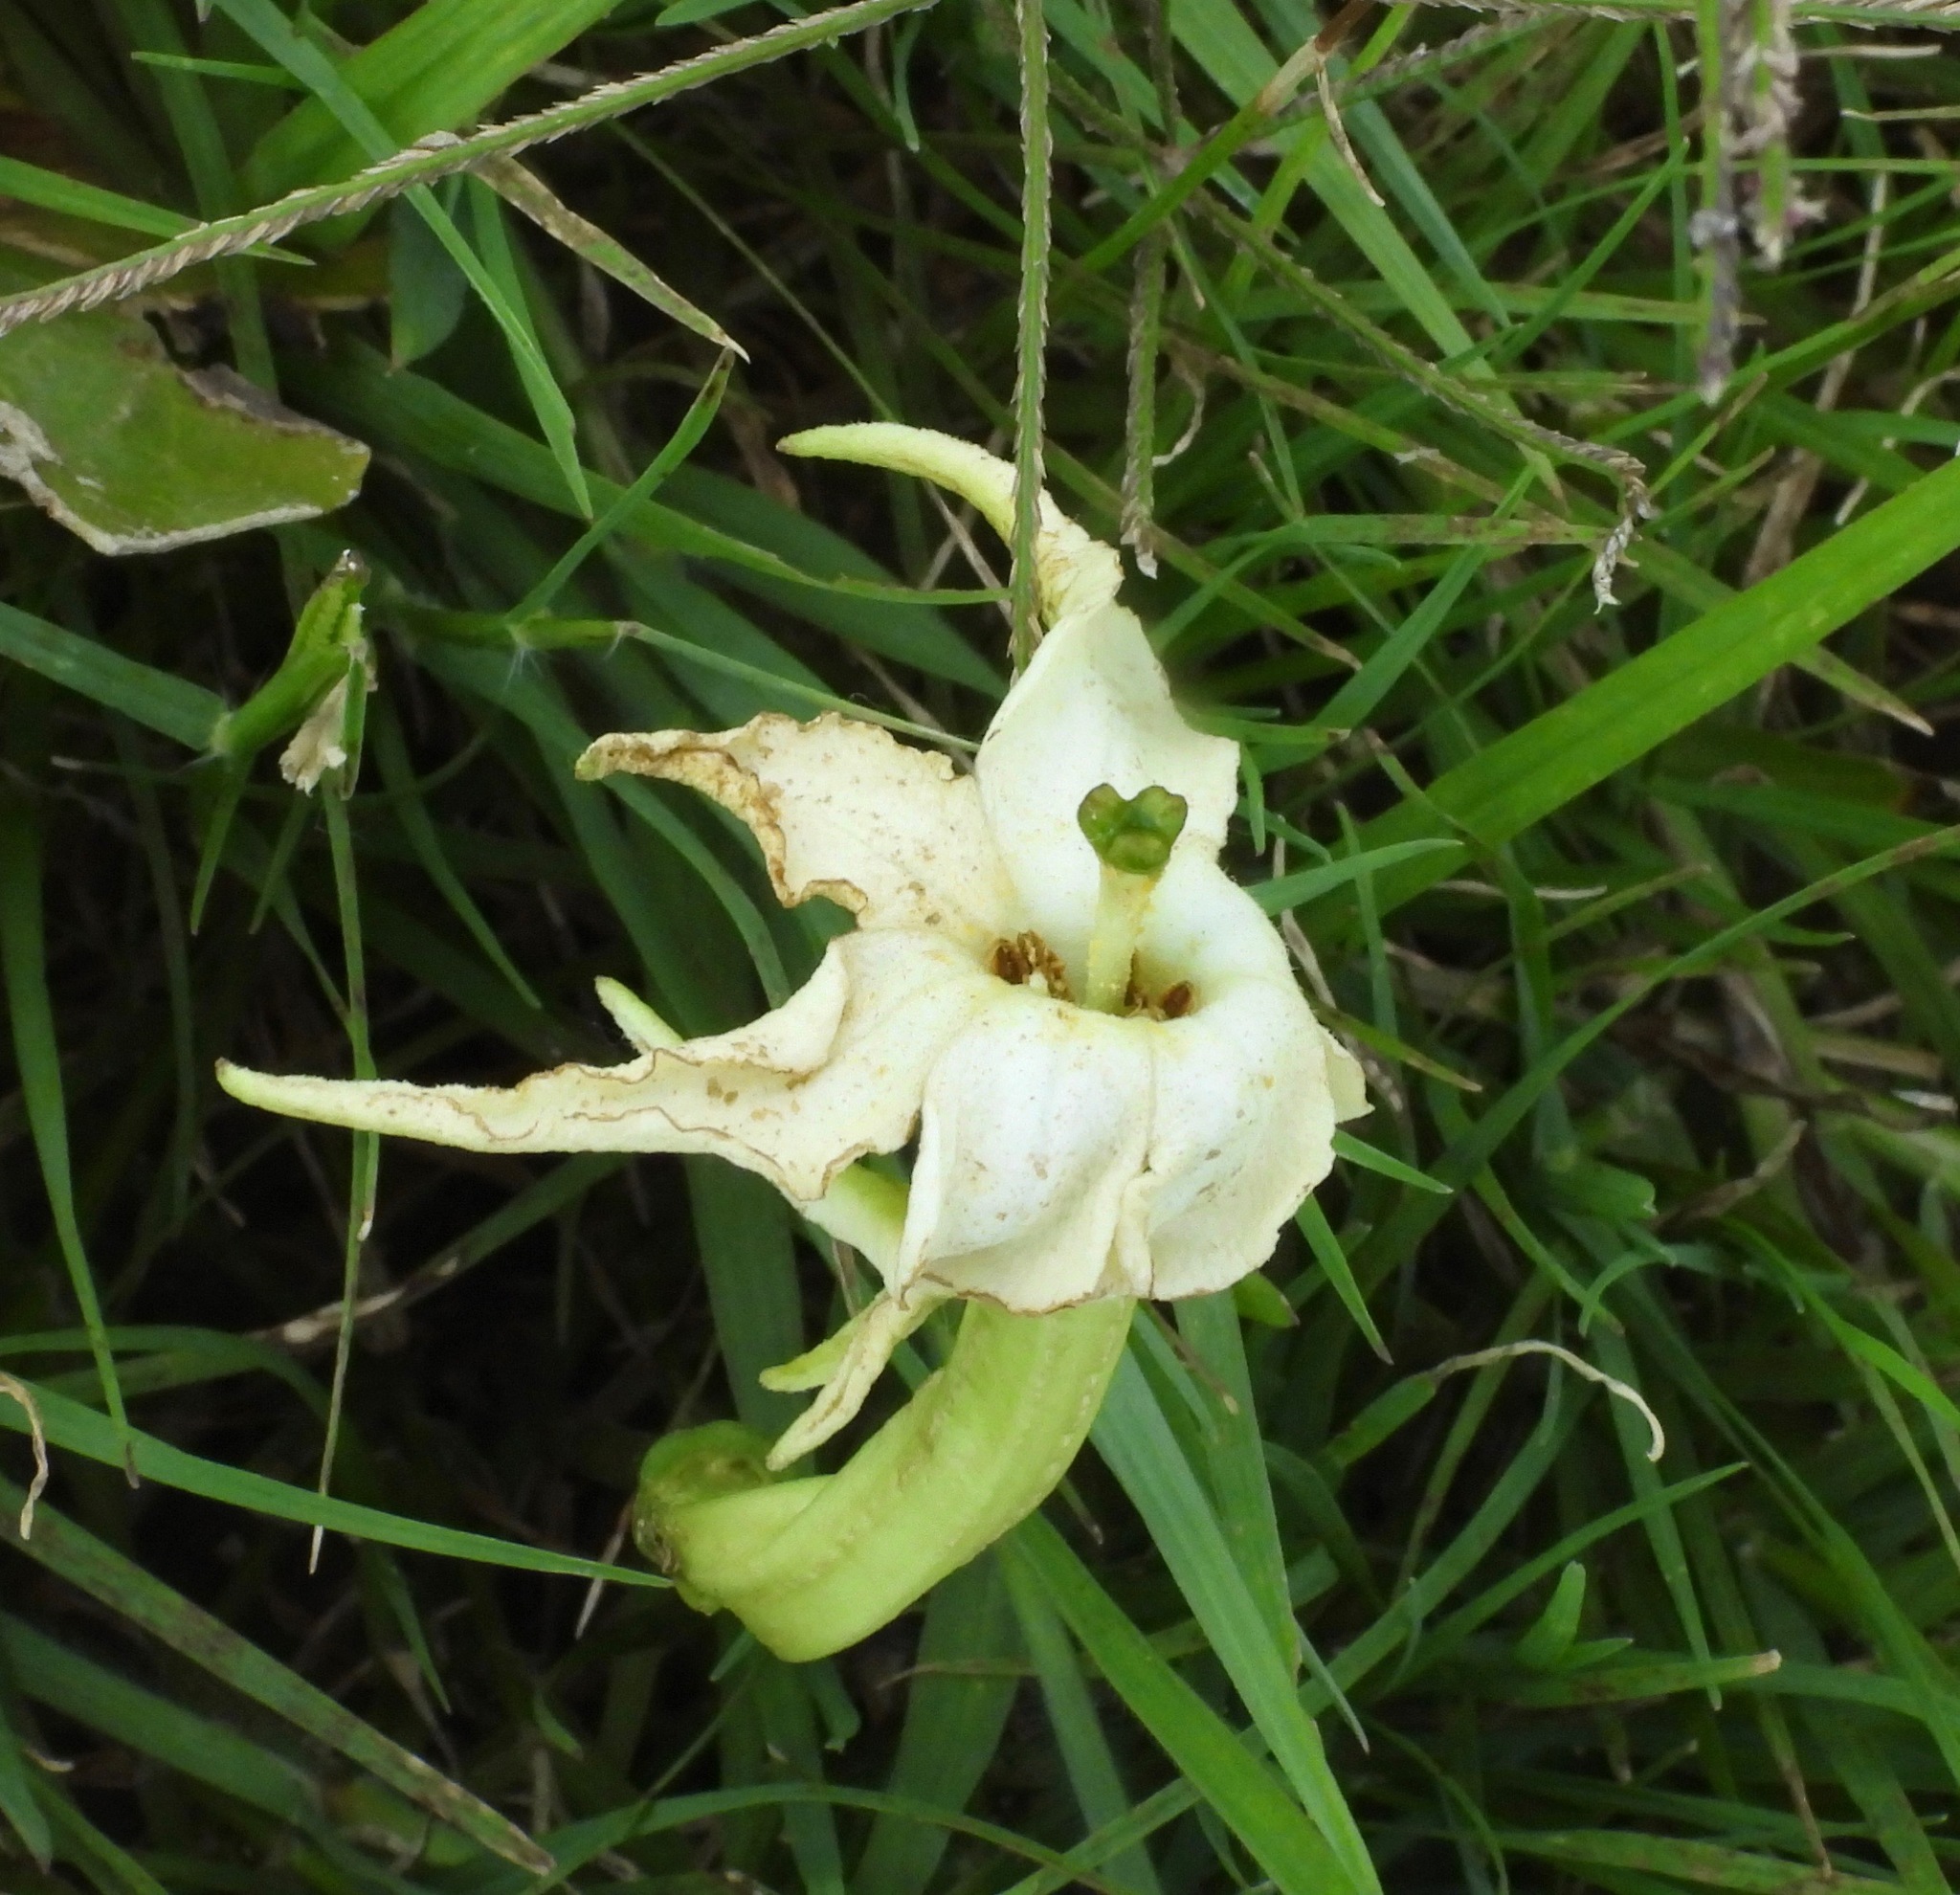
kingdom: Plantae
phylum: Tracheophyta
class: Magnoliopsida
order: Solanales
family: Solanaceae
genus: Jaborosa
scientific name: Jaborosa integrifolia
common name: Springblossom
